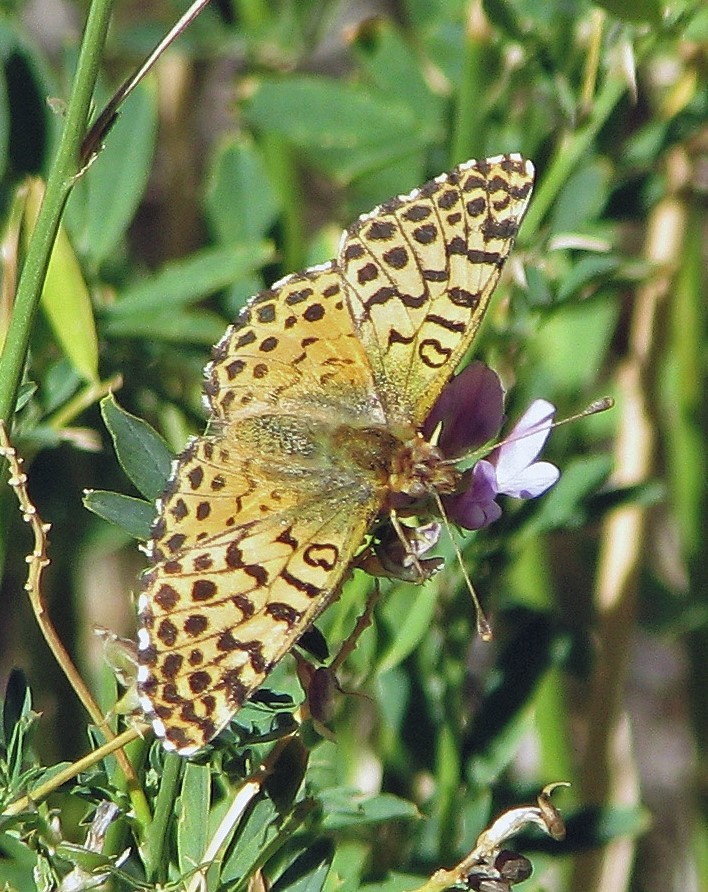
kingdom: Animalia
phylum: Arthropoda
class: Insecta
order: Lepidoptera
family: Nymphalidae
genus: Issoria
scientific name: Issoria Yramea lathonoides
